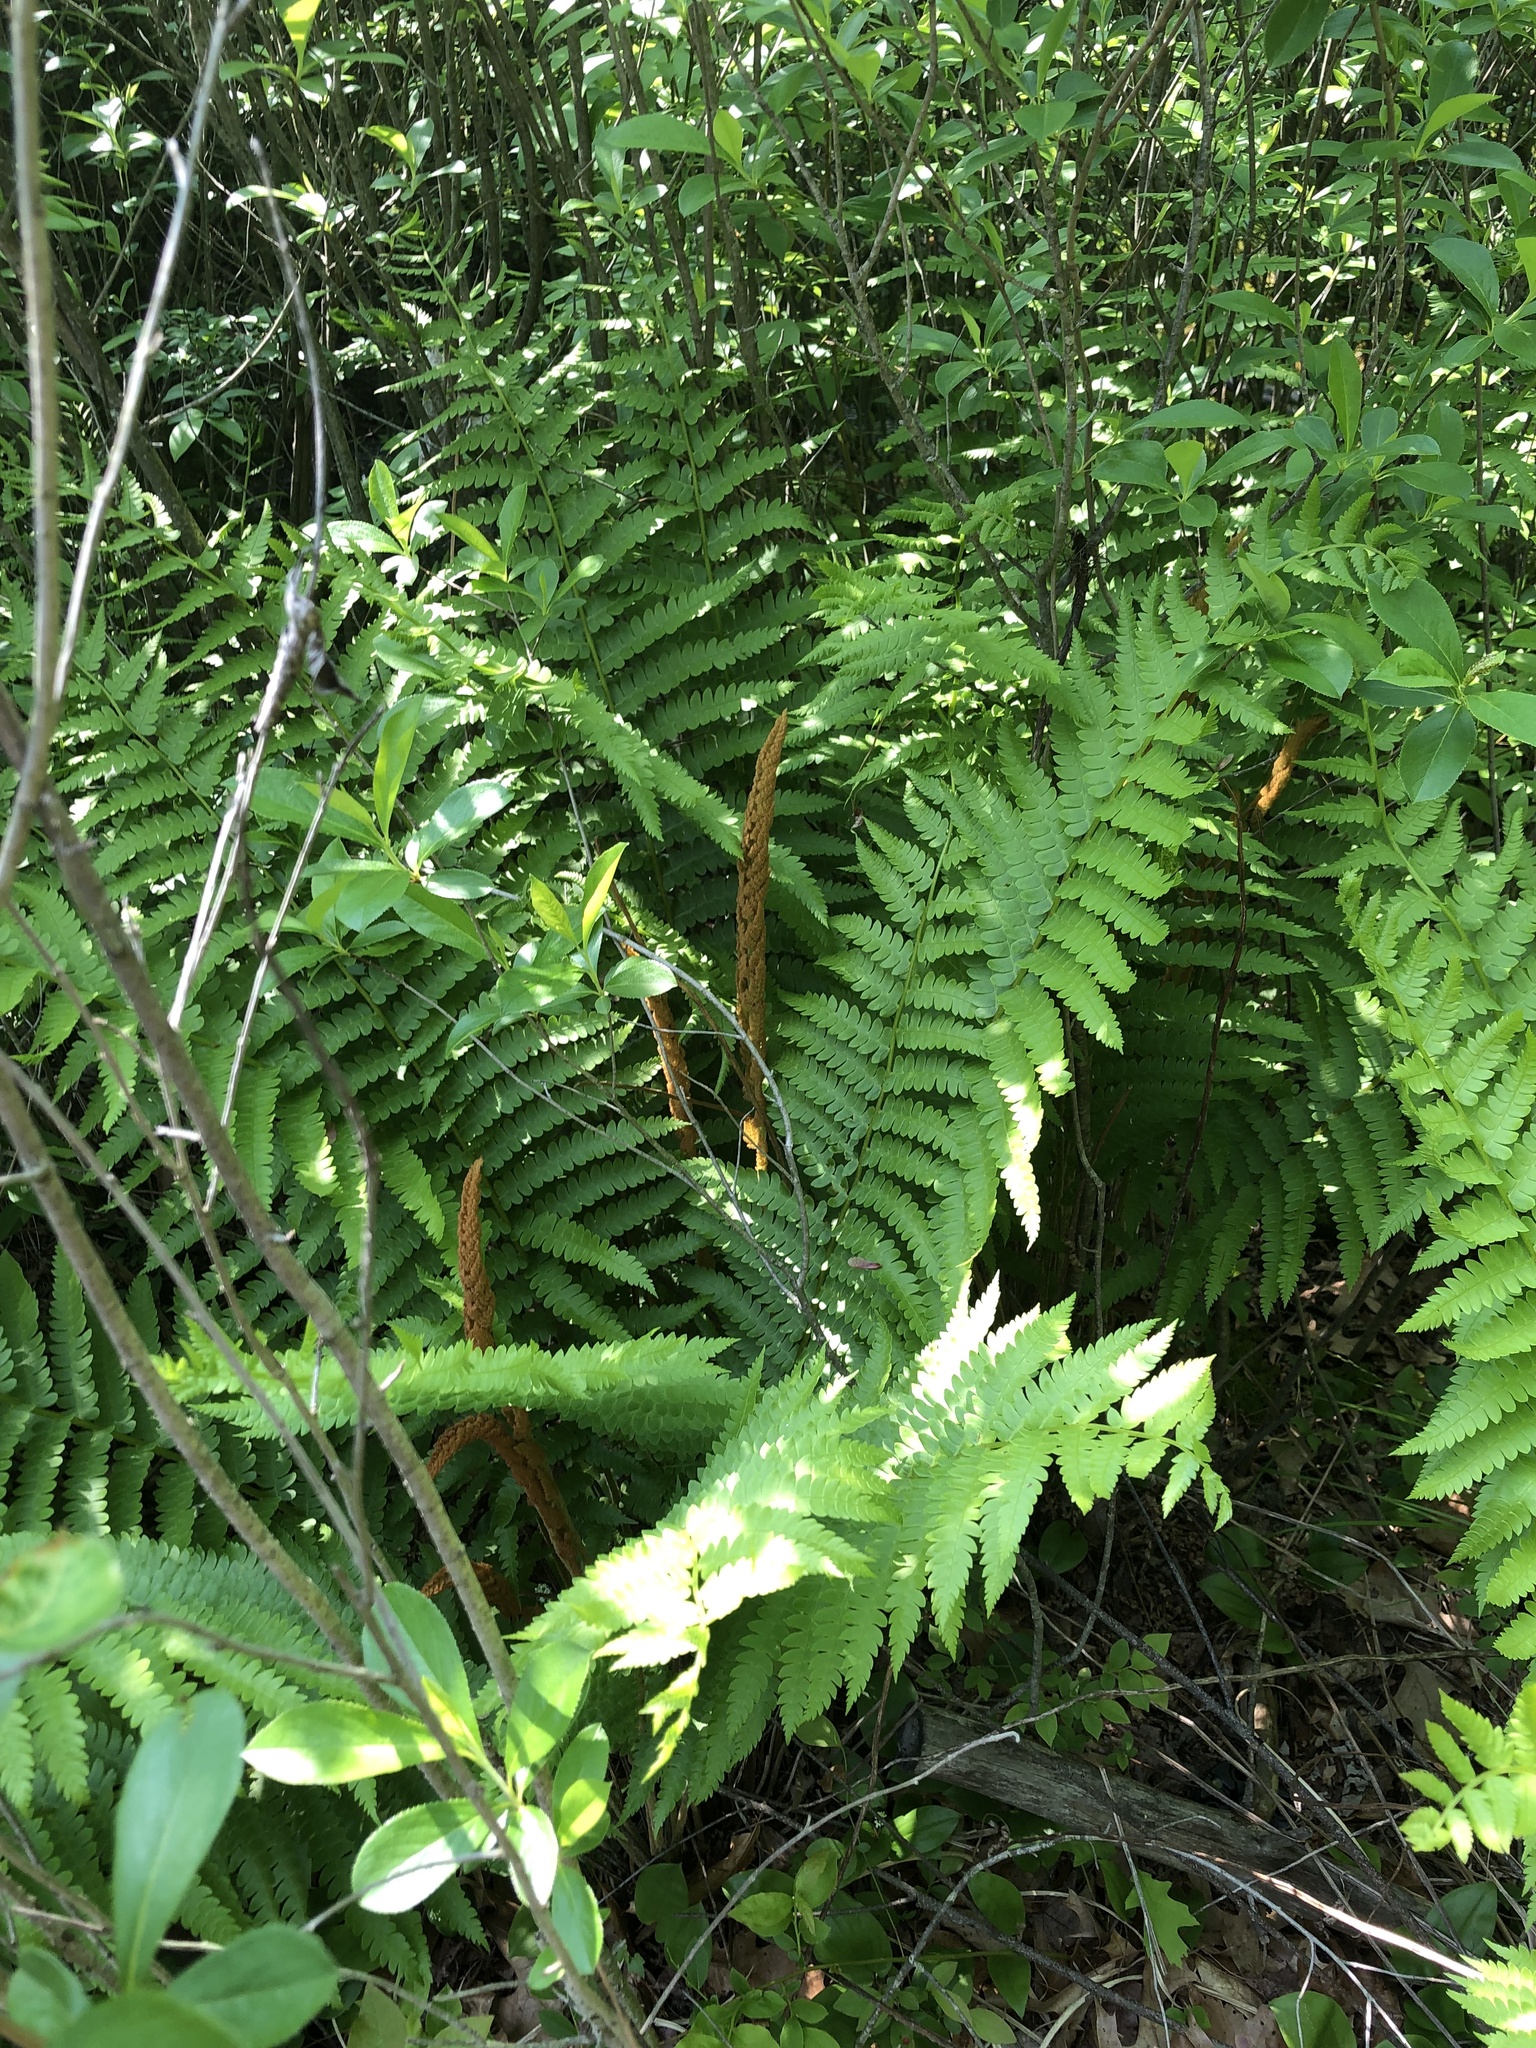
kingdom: Plantae
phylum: Tracheophyta
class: Polypodiopsida
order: Osmundales
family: Osmundaceae
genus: Osmundastrum
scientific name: Osmundastrum cinnamomeum
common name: Cinnamon fern
